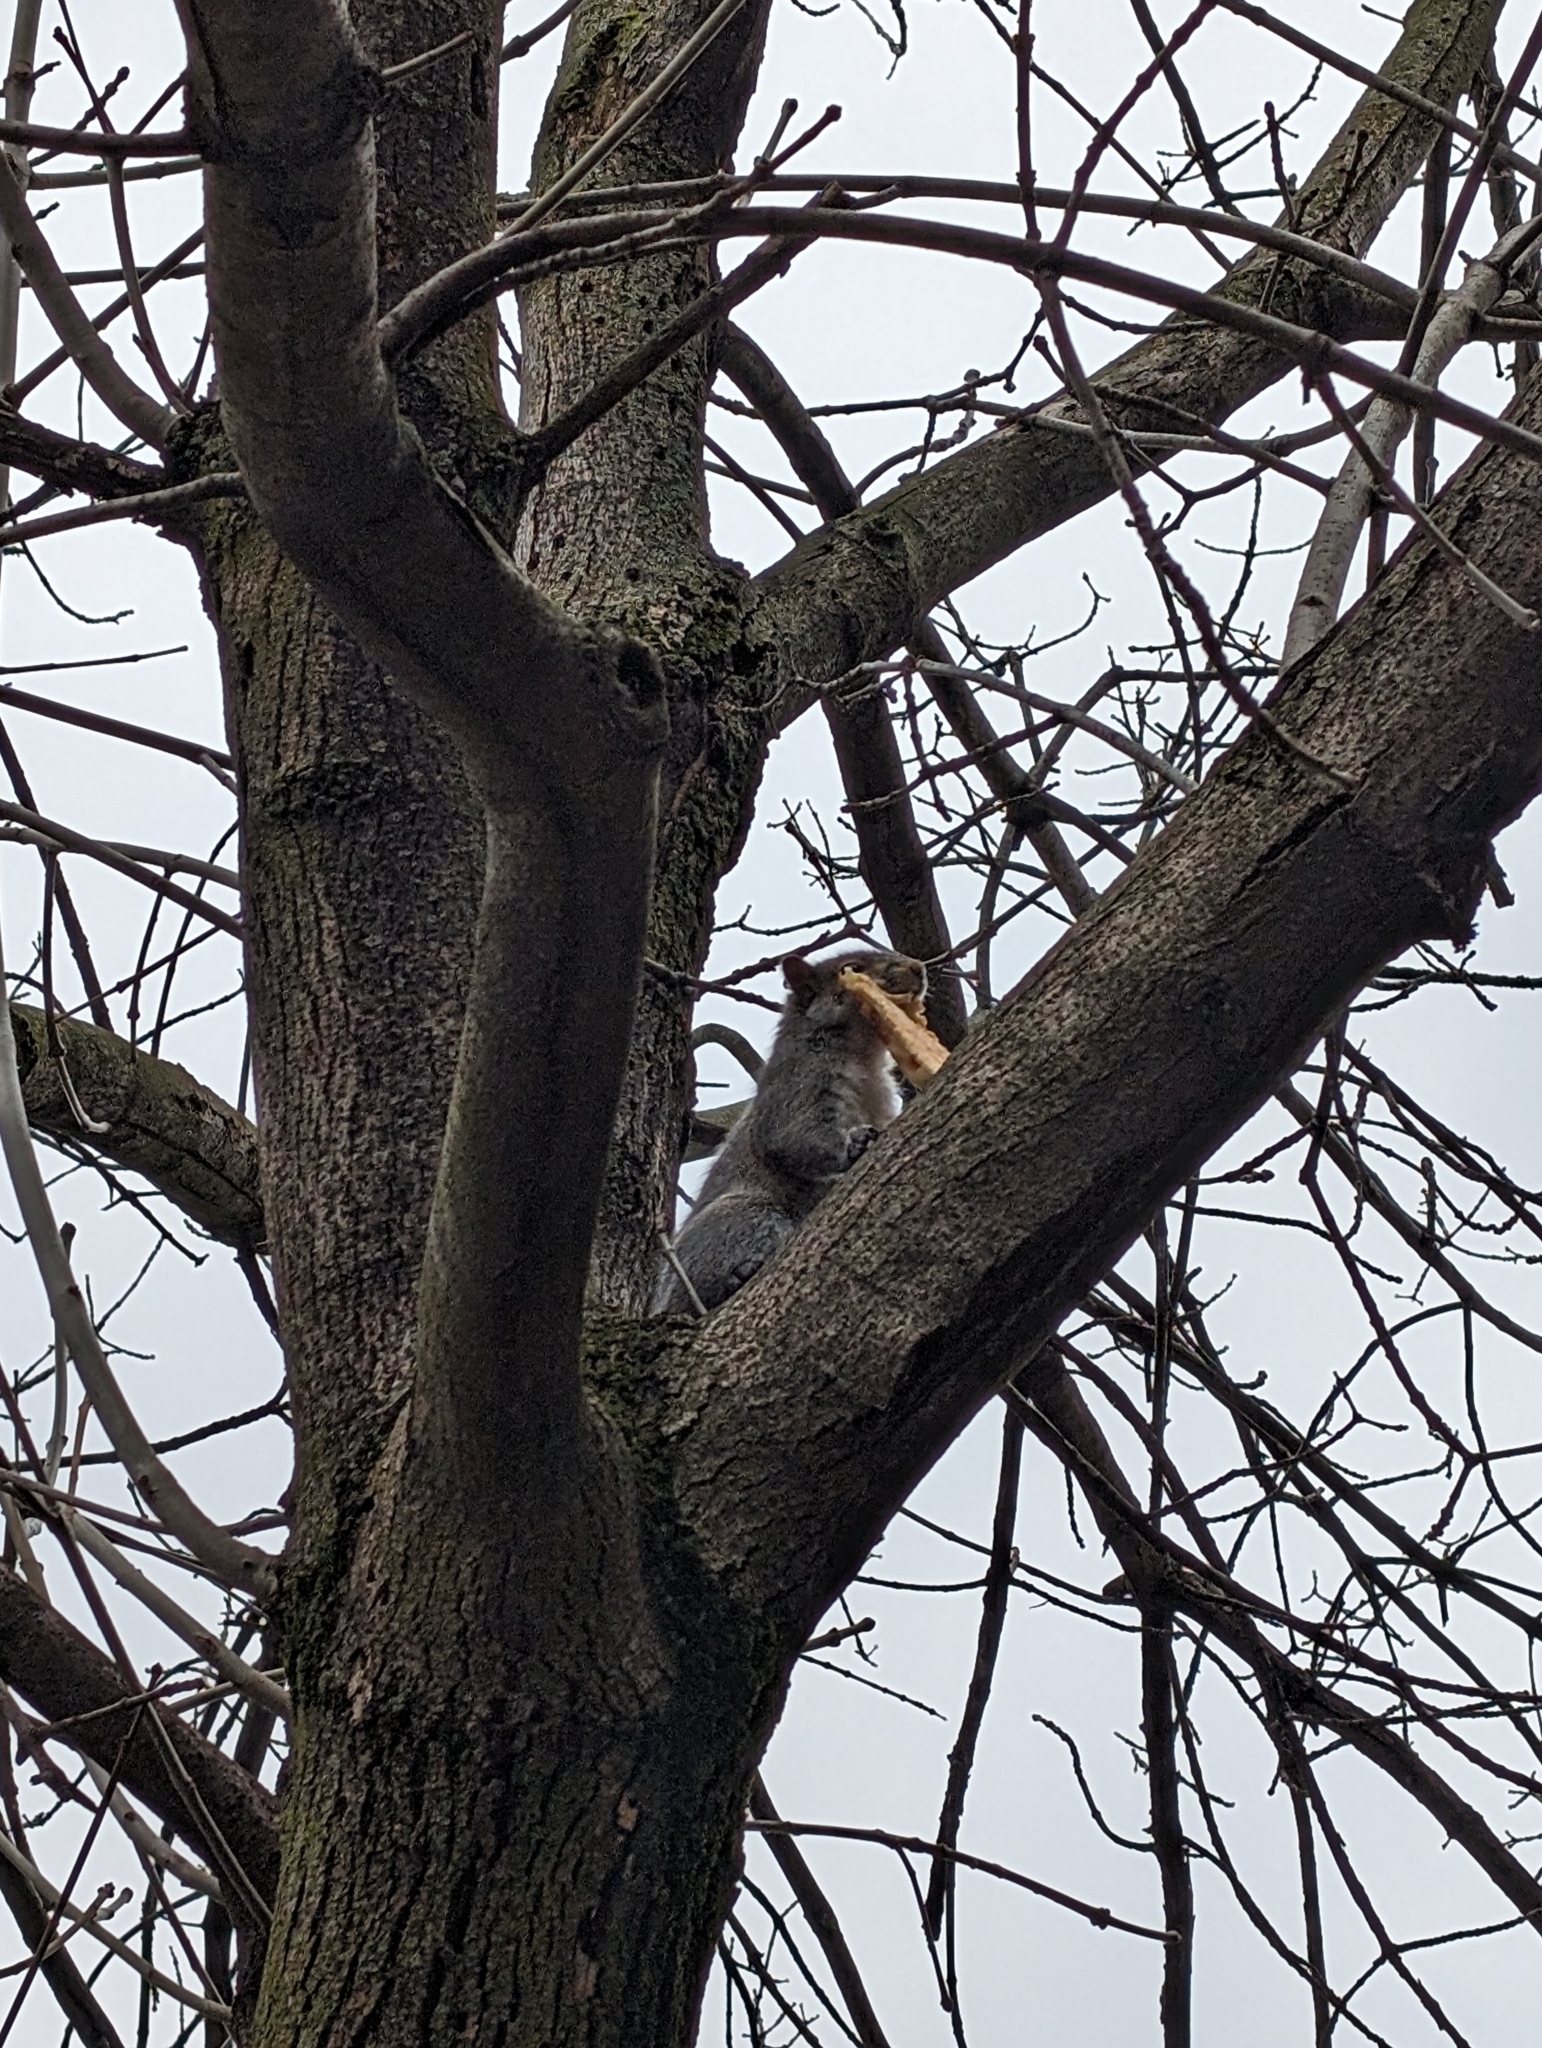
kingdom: Animalia
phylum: Chordata
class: Mammalia
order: Rodentia
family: Sciuridae
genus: Sciurus
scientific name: Sciurus carolinensis
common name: Eastern gray squirrel
